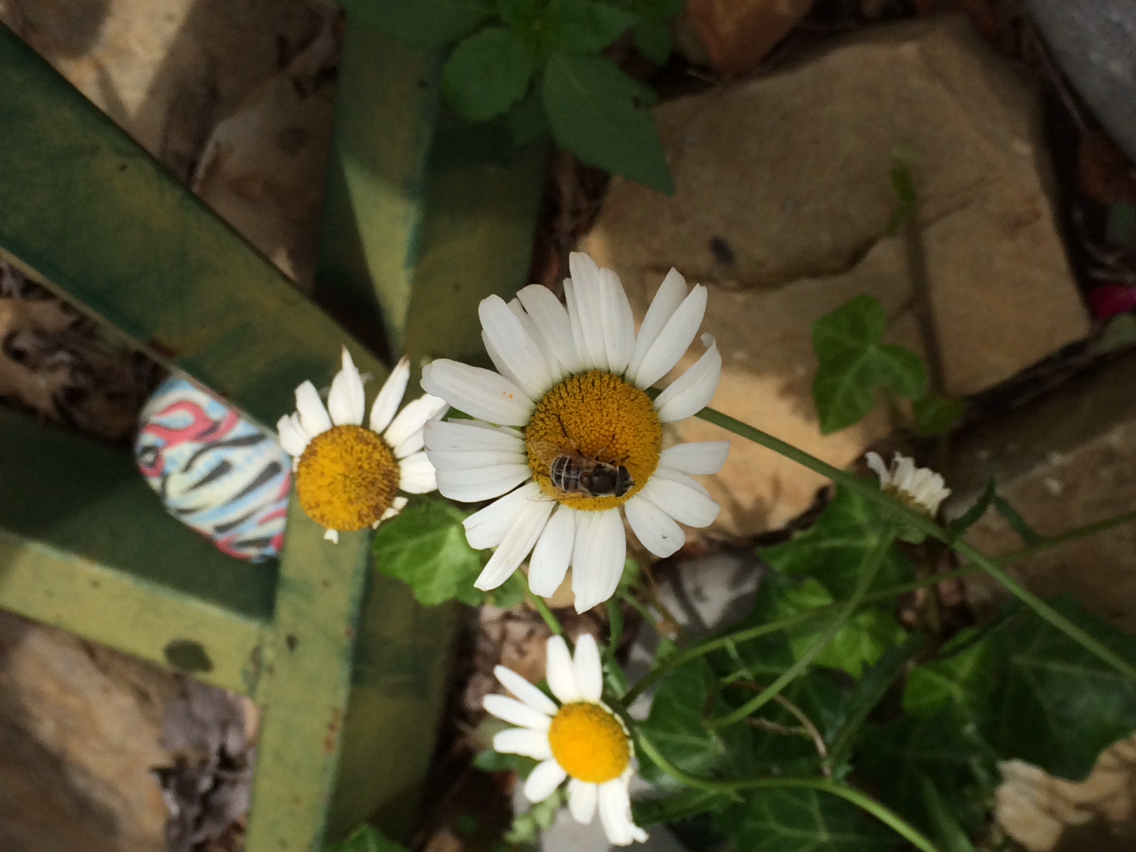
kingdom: Animalia
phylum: Arthropoda
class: Insecta
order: Diptera
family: Syrphidae
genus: Eristalis
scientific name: Eristalis stipator
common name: Yellow-shouldered drone fly
